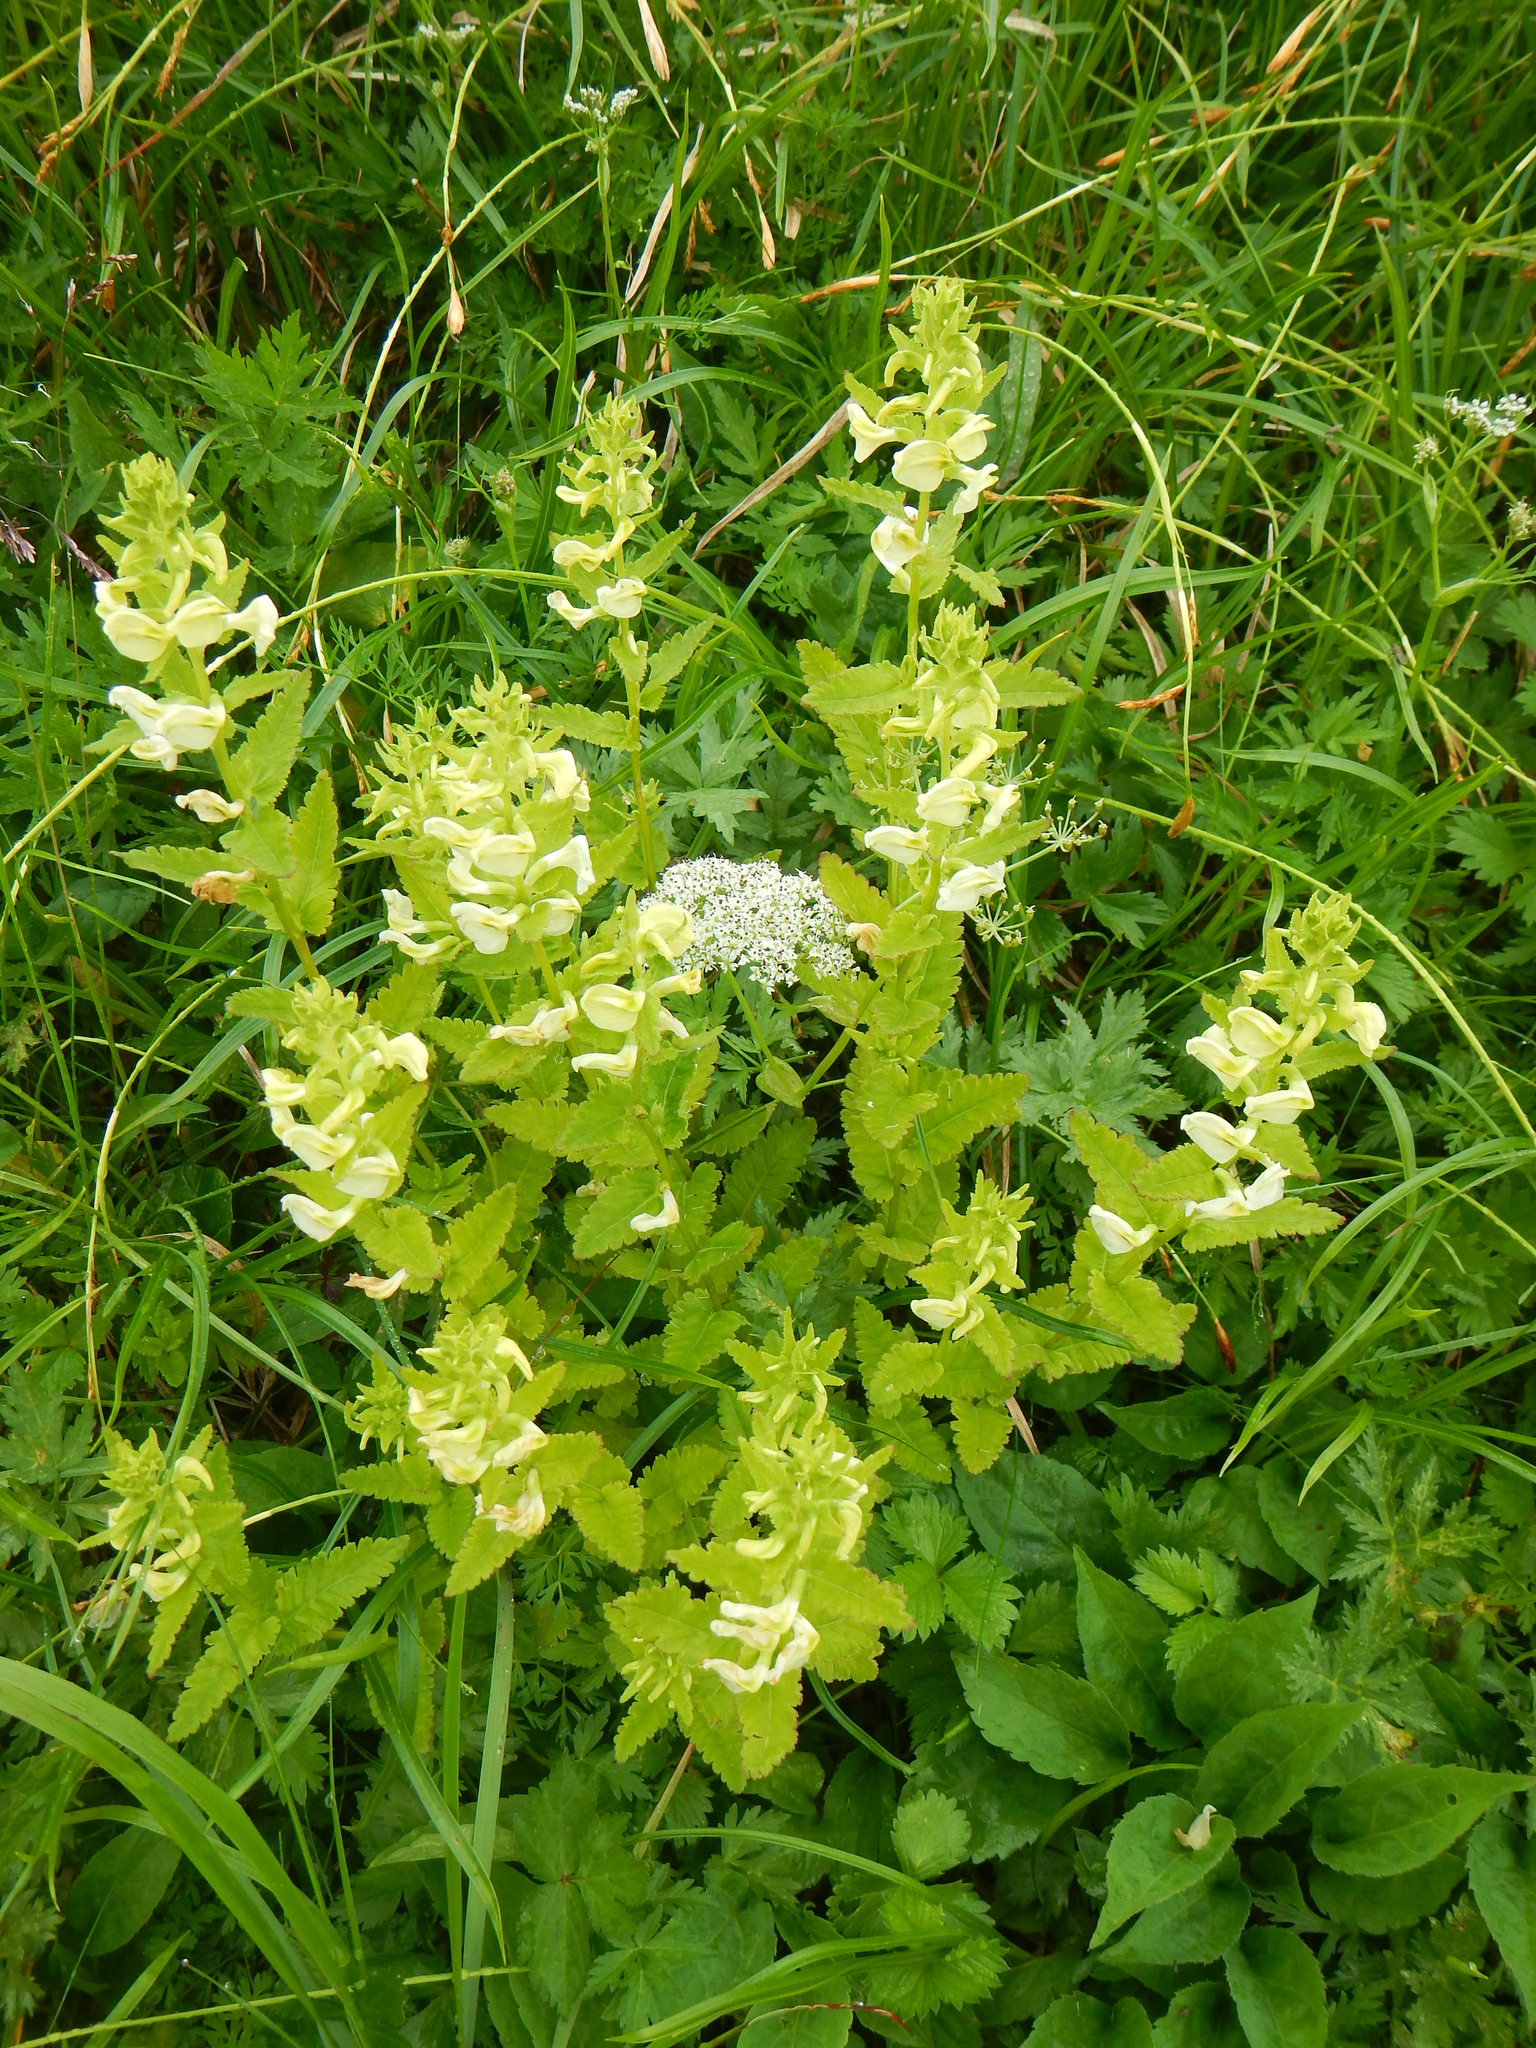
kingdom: Plantae
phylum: Tracheophyta
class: Magnoliopsida
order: Lamiales
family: Orobanchaceae
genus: Pedicularis
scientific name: Pedicularis yezoensis
